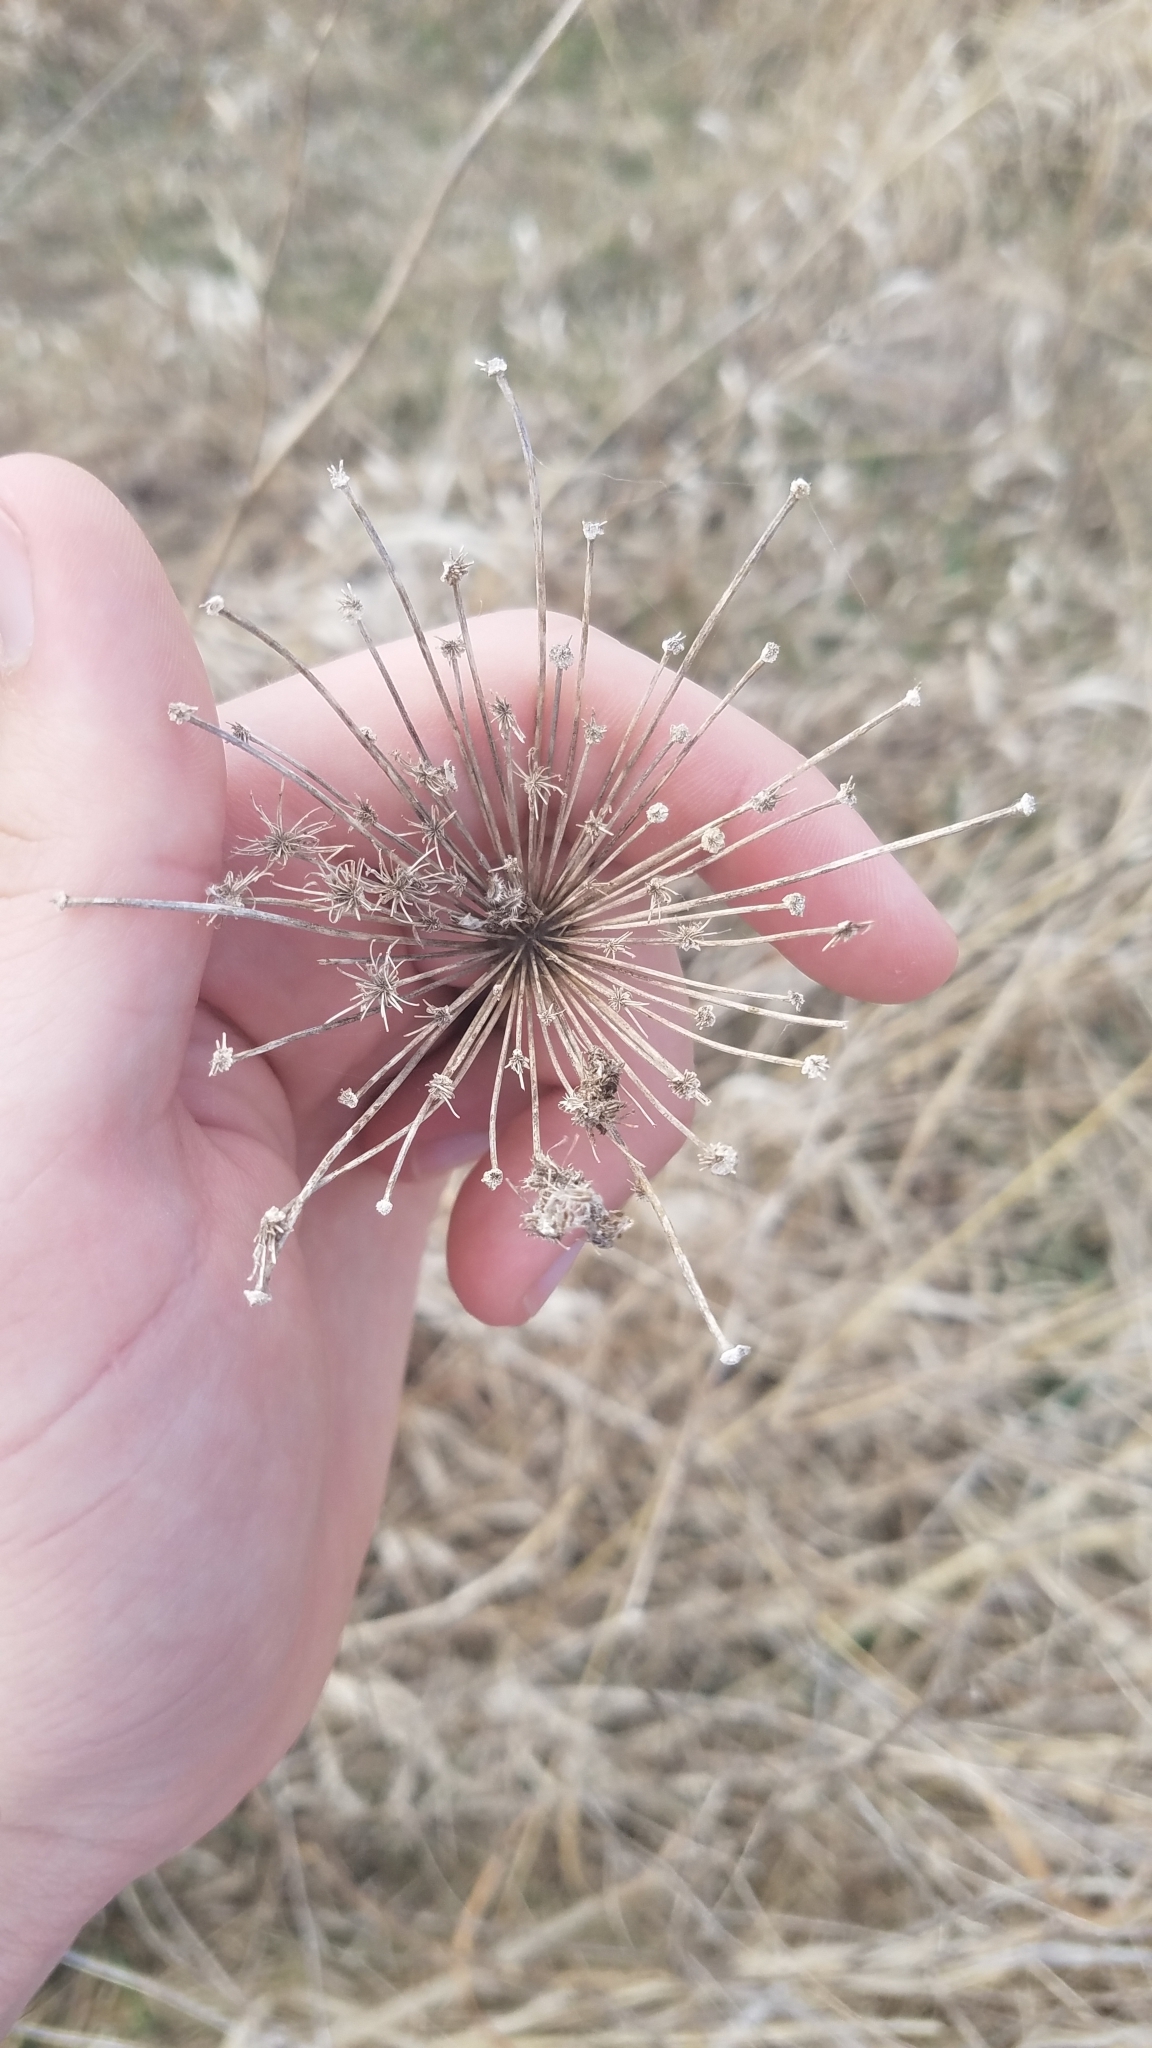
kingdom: Plantae
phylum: Tracheophyta
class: Magnoliopsida
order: Apiales
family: Apiaceae
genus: Daucus
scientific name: Daucus carota
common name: Wild carrot
